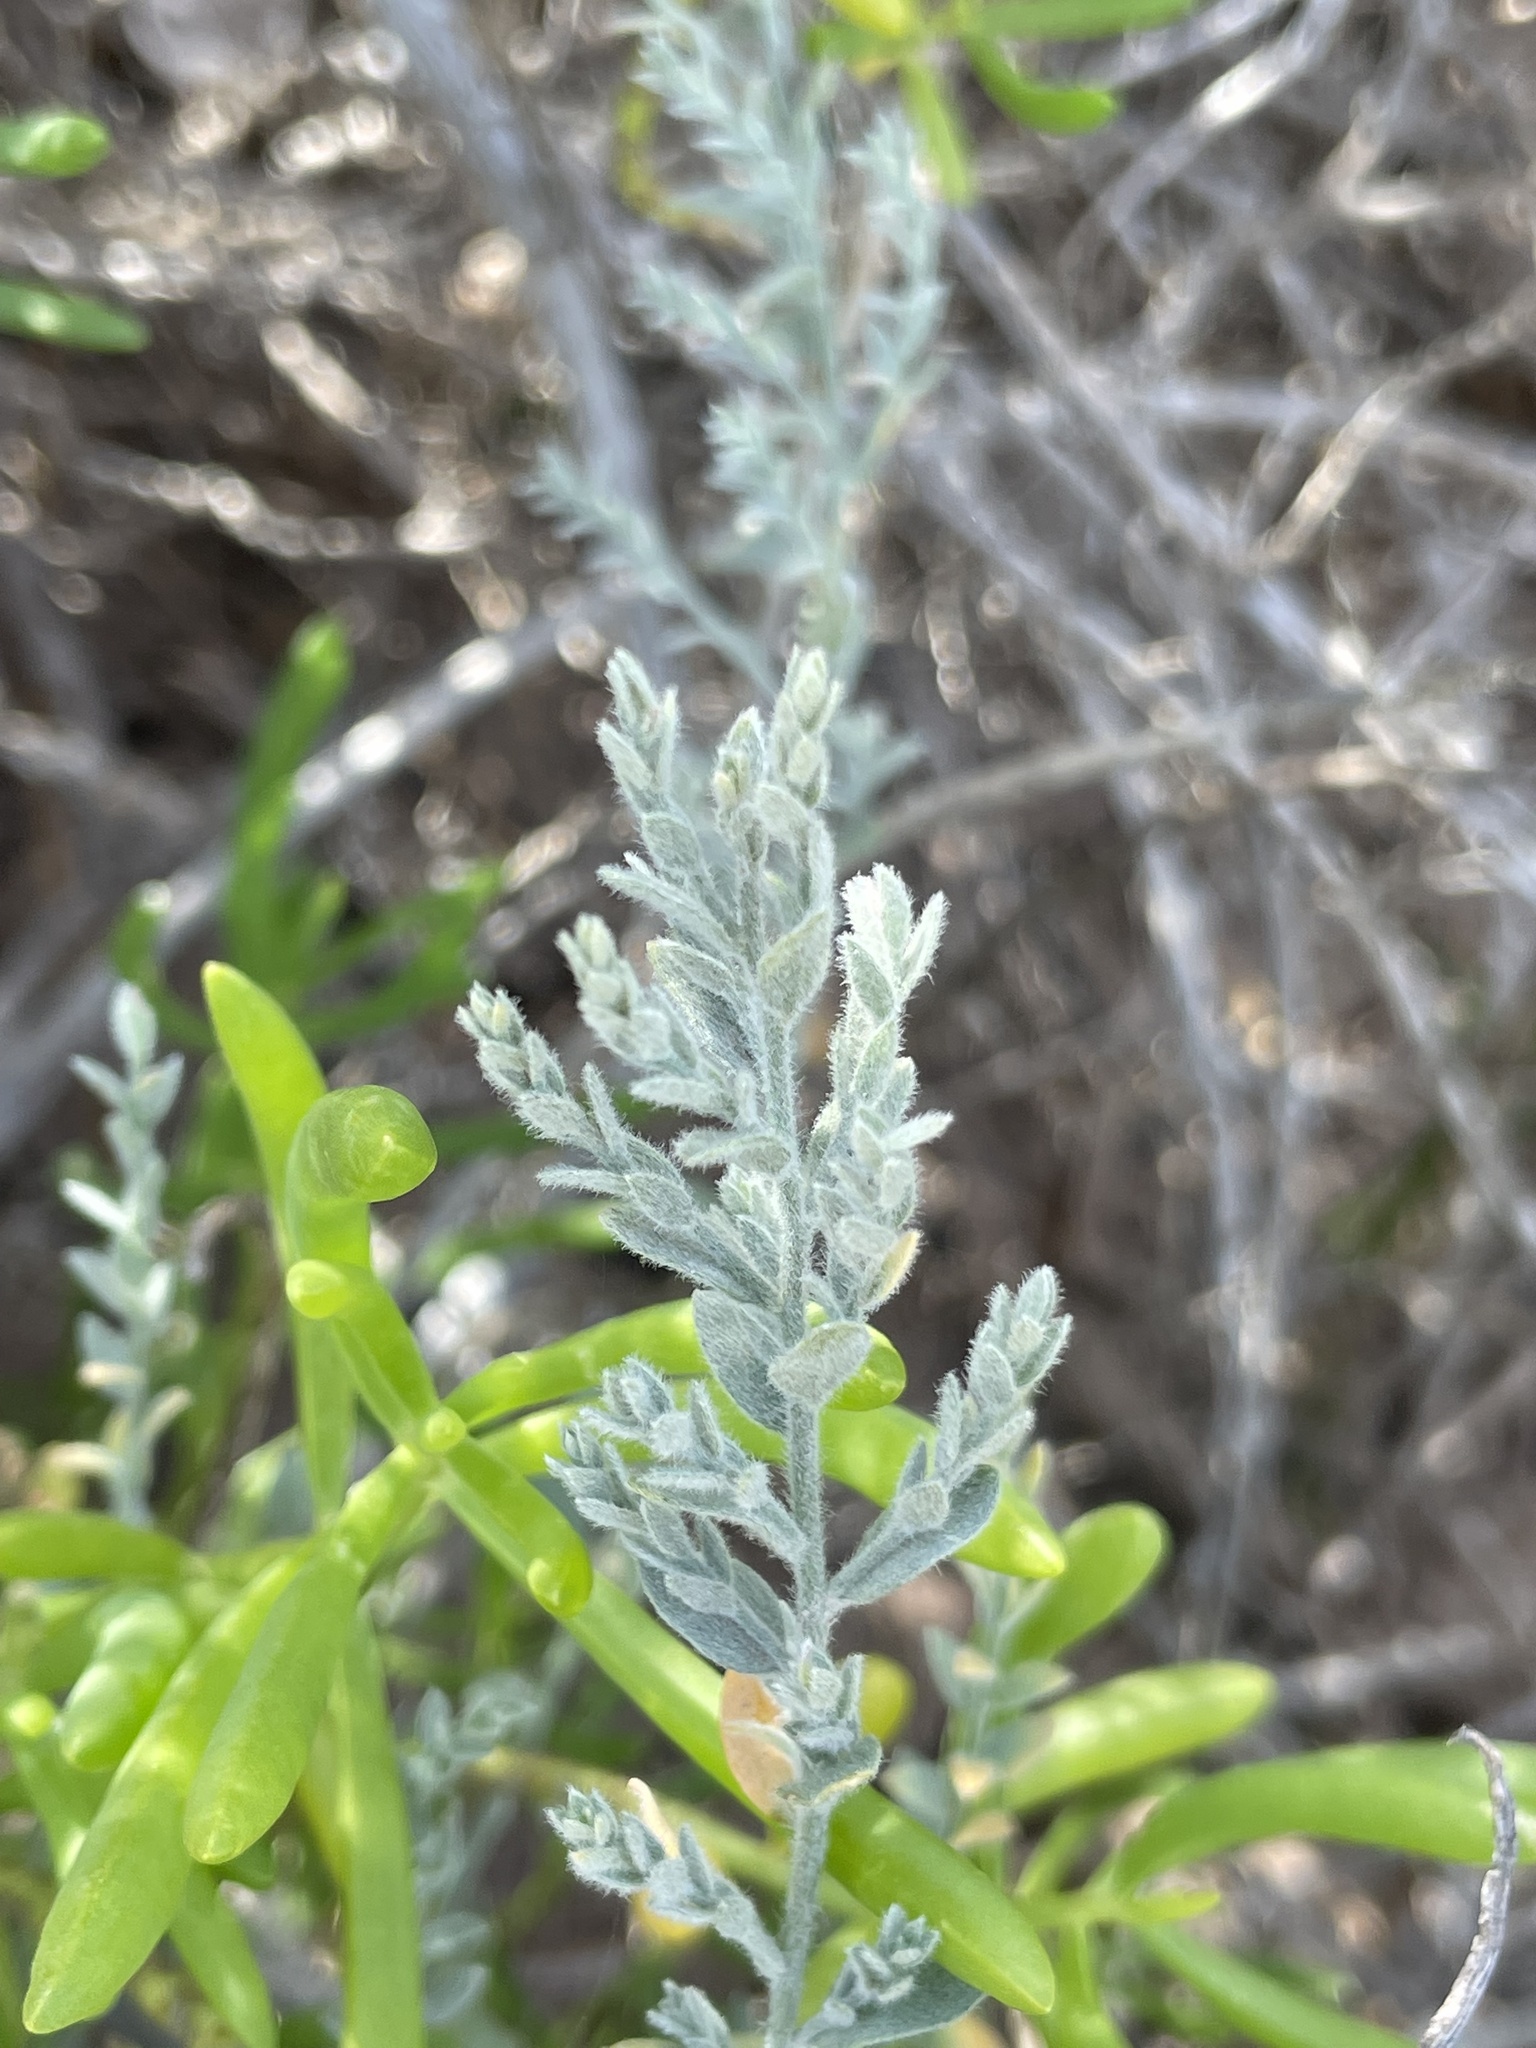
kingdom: Plantae
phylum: Tracheophyta
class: Magnoliopsida
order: Solanales
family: Convolvulaceae
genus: Cressa
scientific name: Cressa truxillensis
